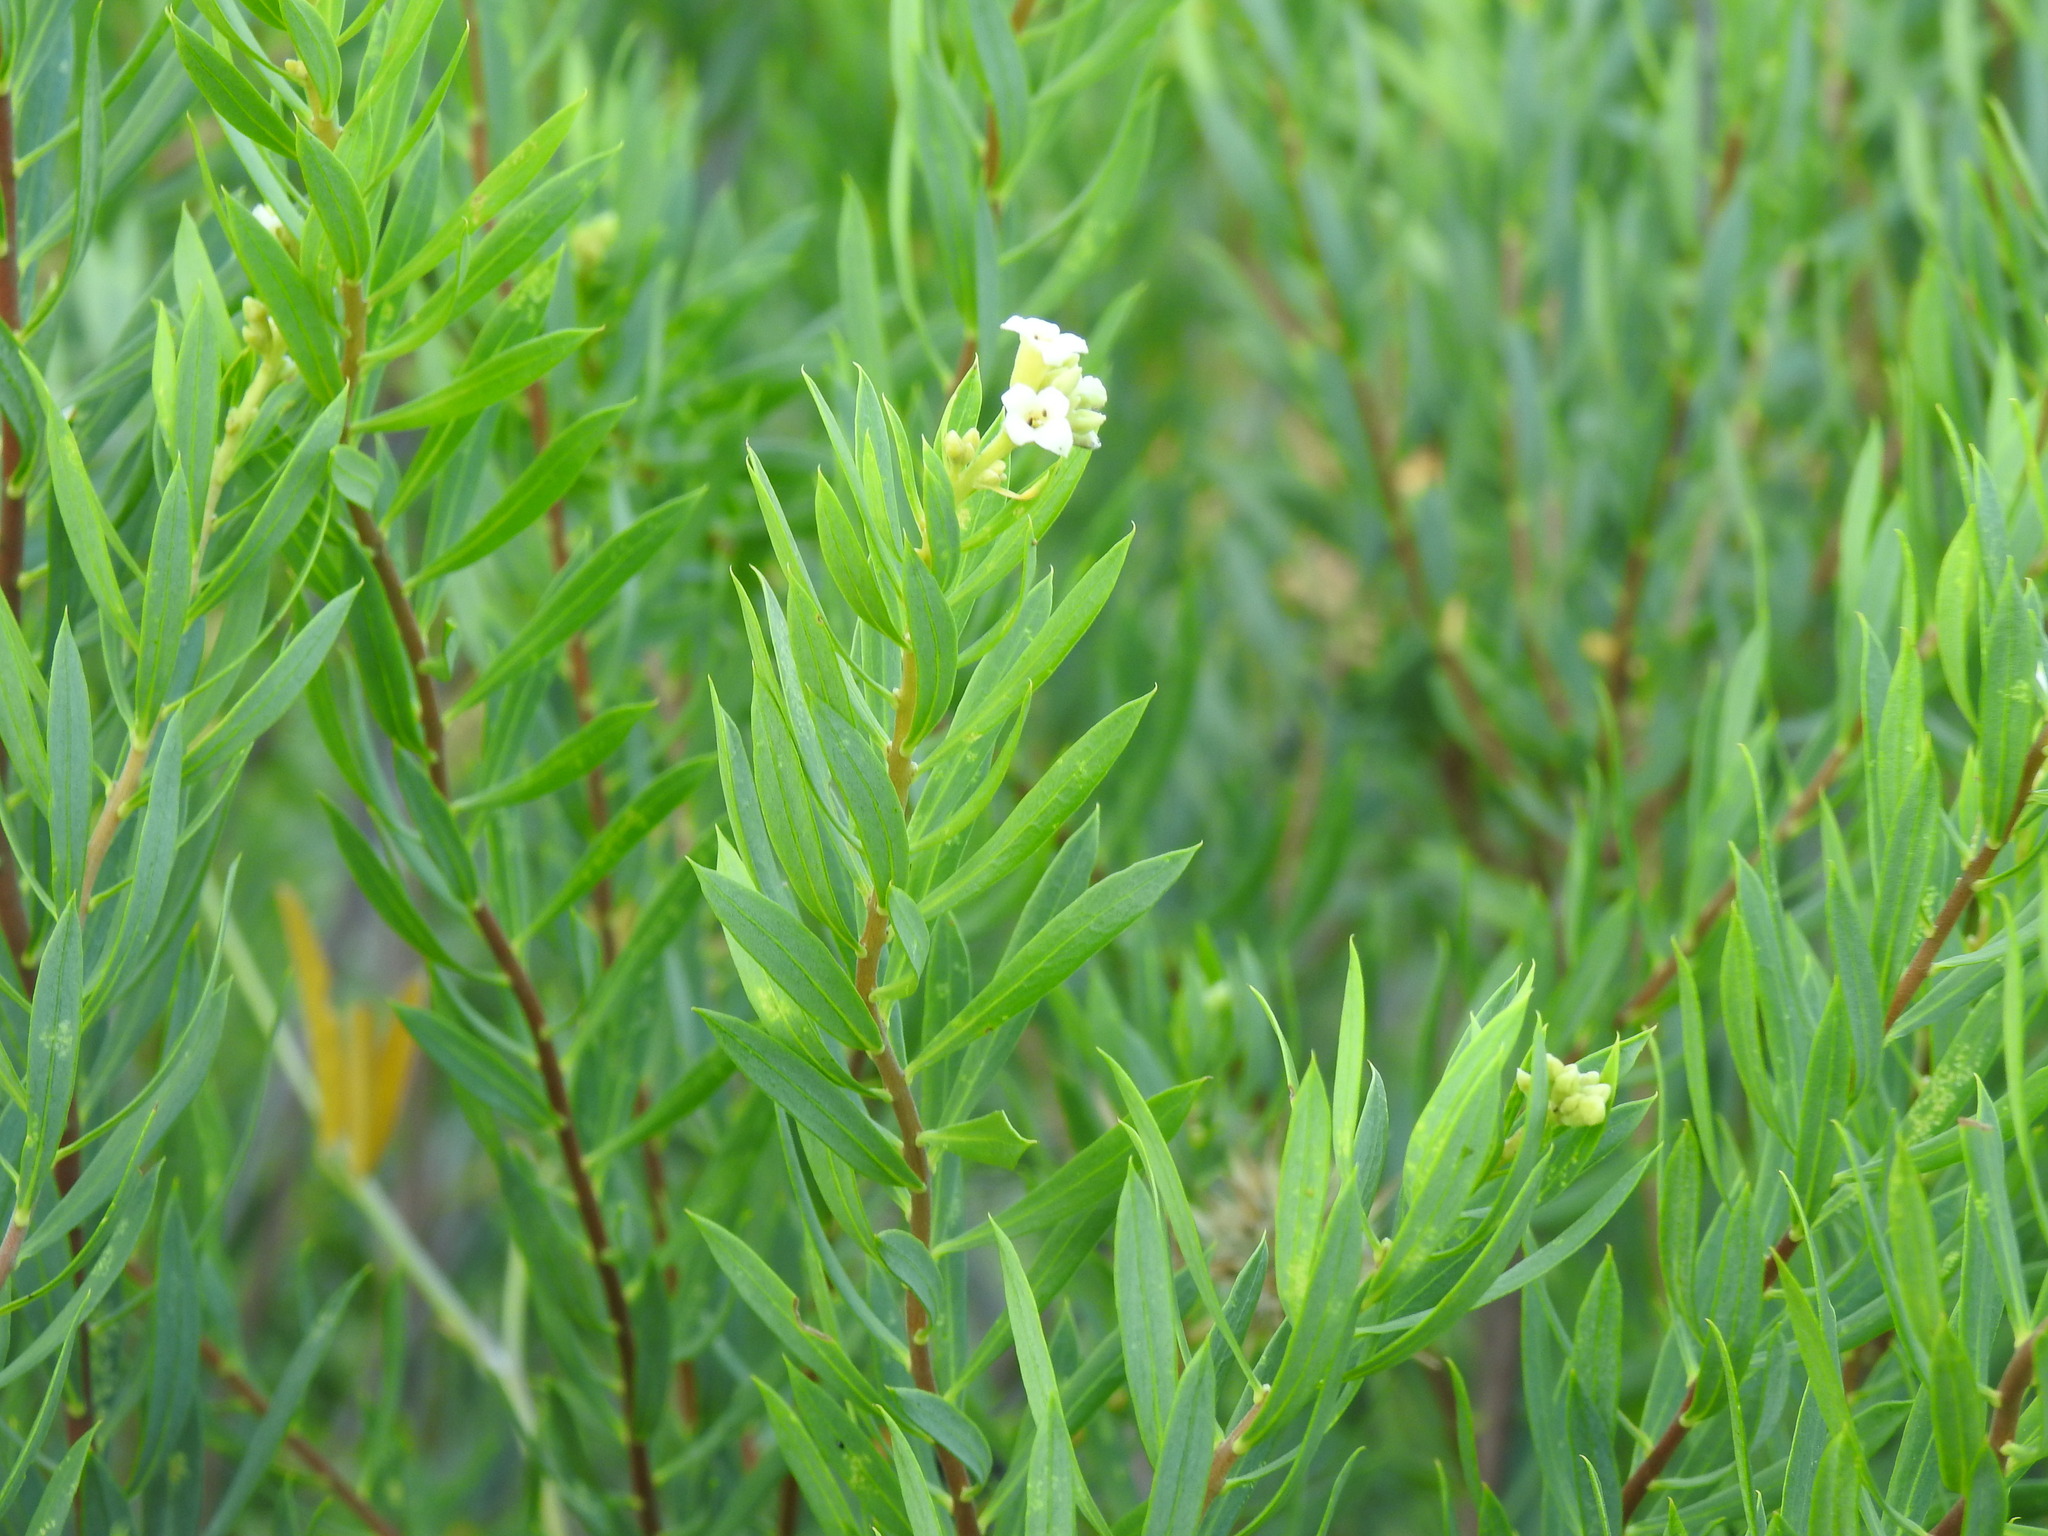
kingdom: Plantae
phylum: Tracheophyta
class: Magnoliopsida
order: Malvales
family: Thymelaeaceae
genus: Daphne
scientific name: Daphne gnidium
